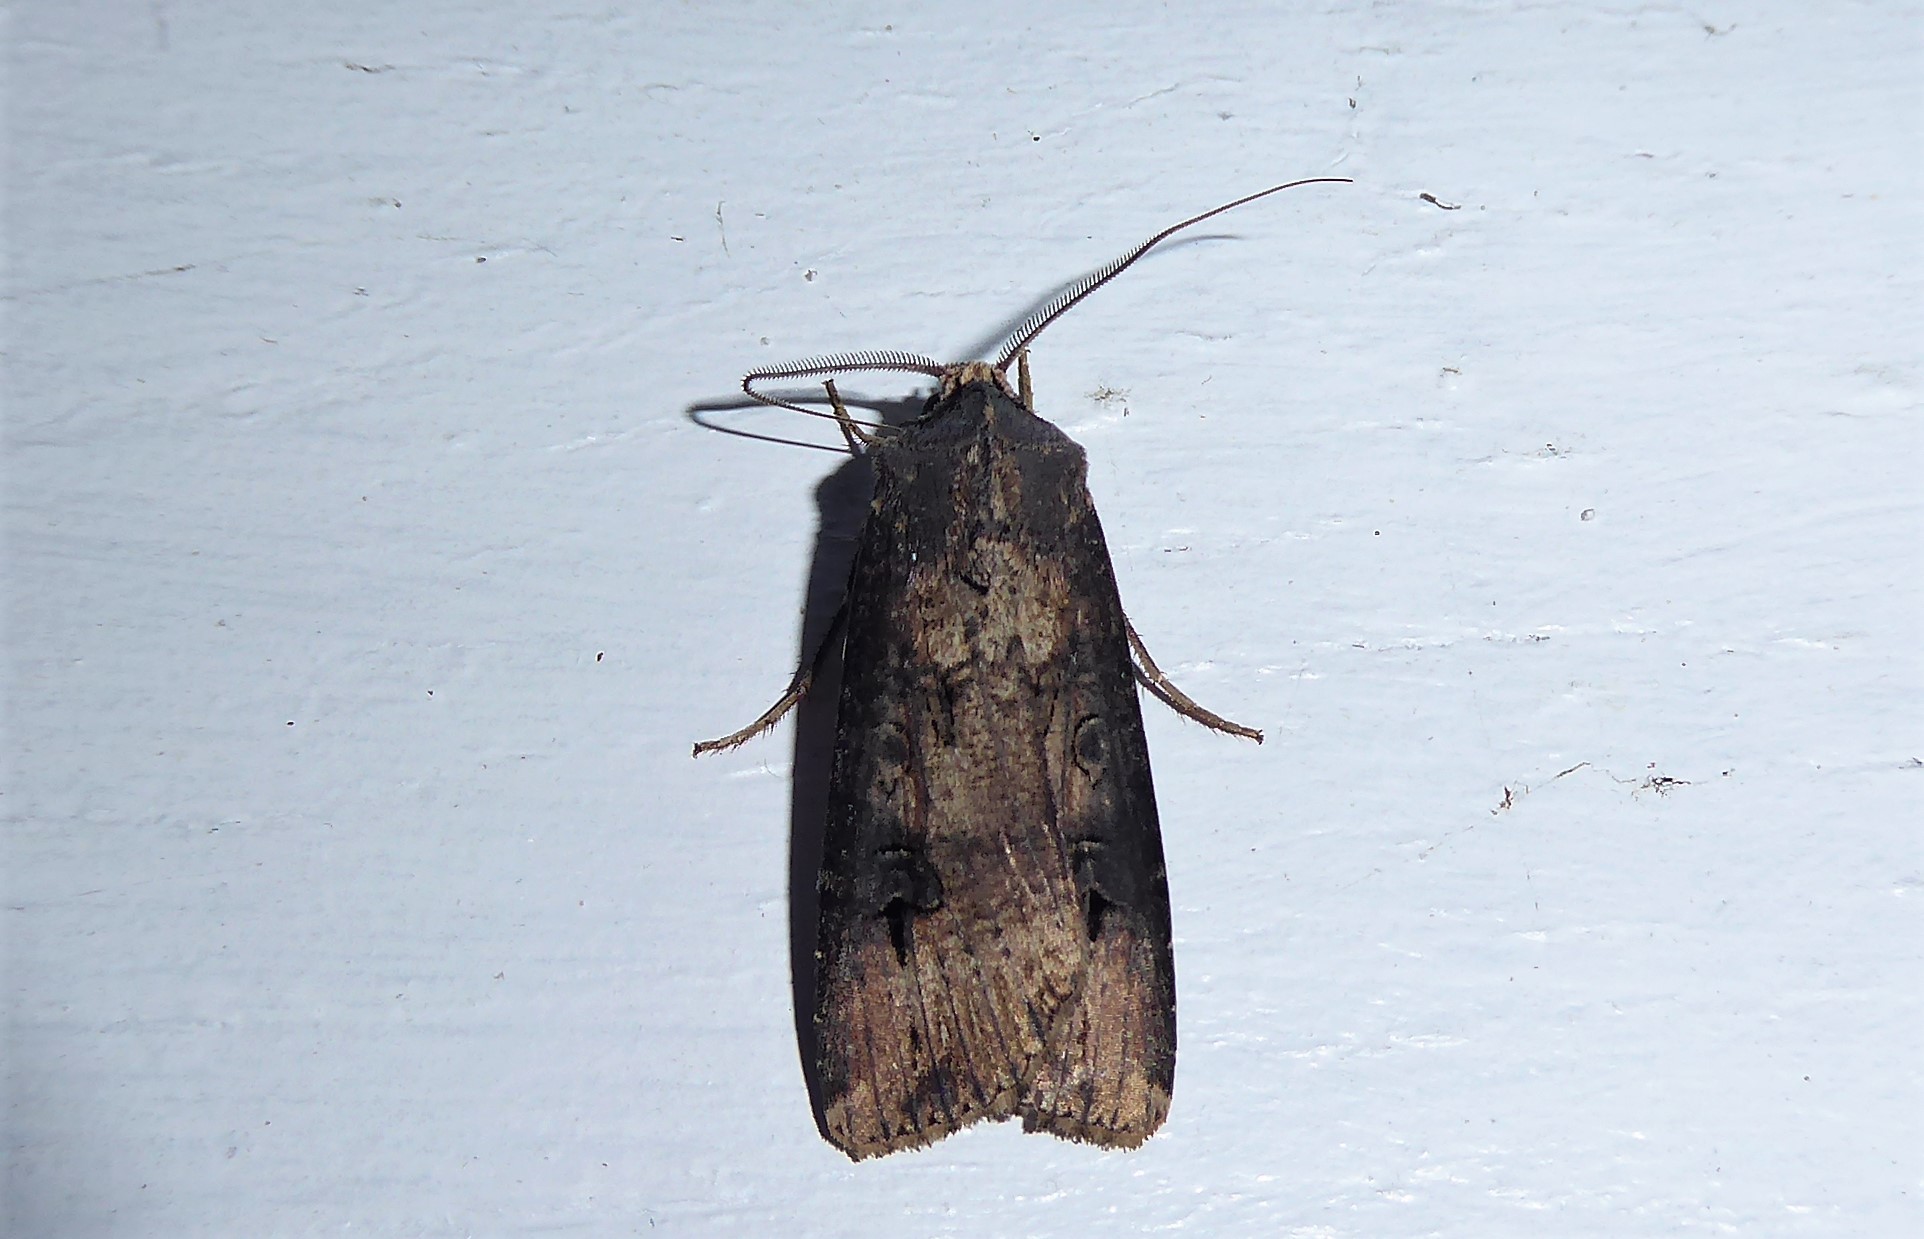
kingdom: Animalia
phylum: Arthropoda
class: Insecta
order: Lepidoptera
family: Noctuidae
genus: Agrotis
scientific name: Agrotis ipsilon
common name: Dark sword-grass
